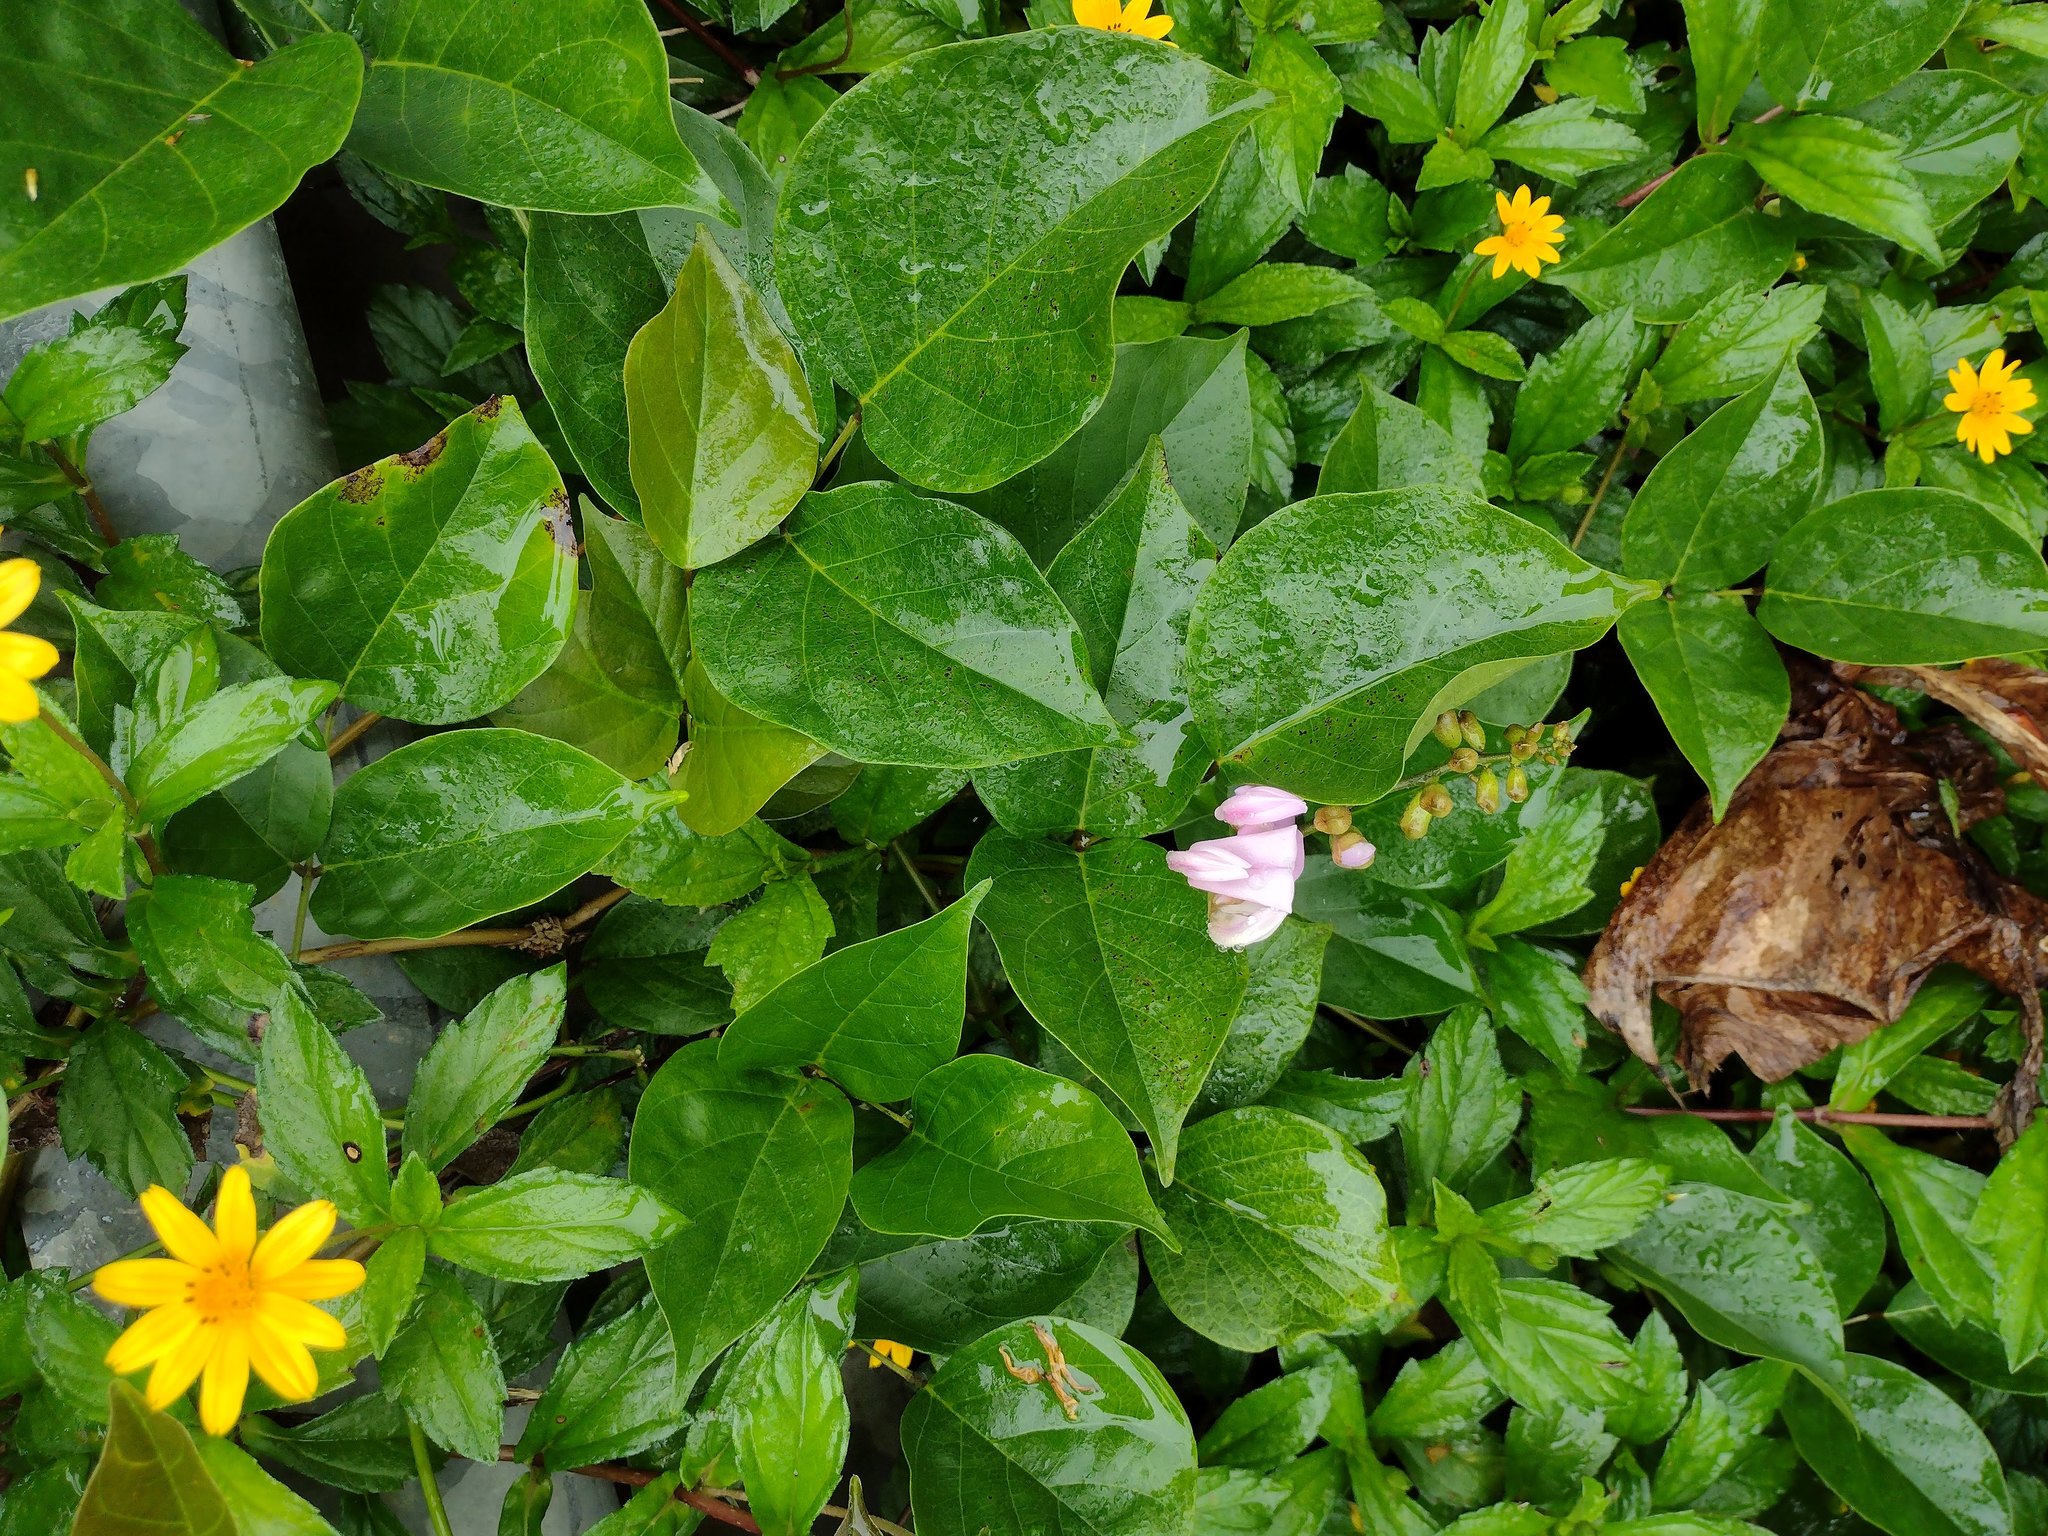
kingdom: Plantae
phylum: Tracheophyta
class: Magnoliopsida
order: Fabales
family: Fabaceae
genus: Canavalia
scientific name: Canavalia cathartica
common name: Maunaloa
